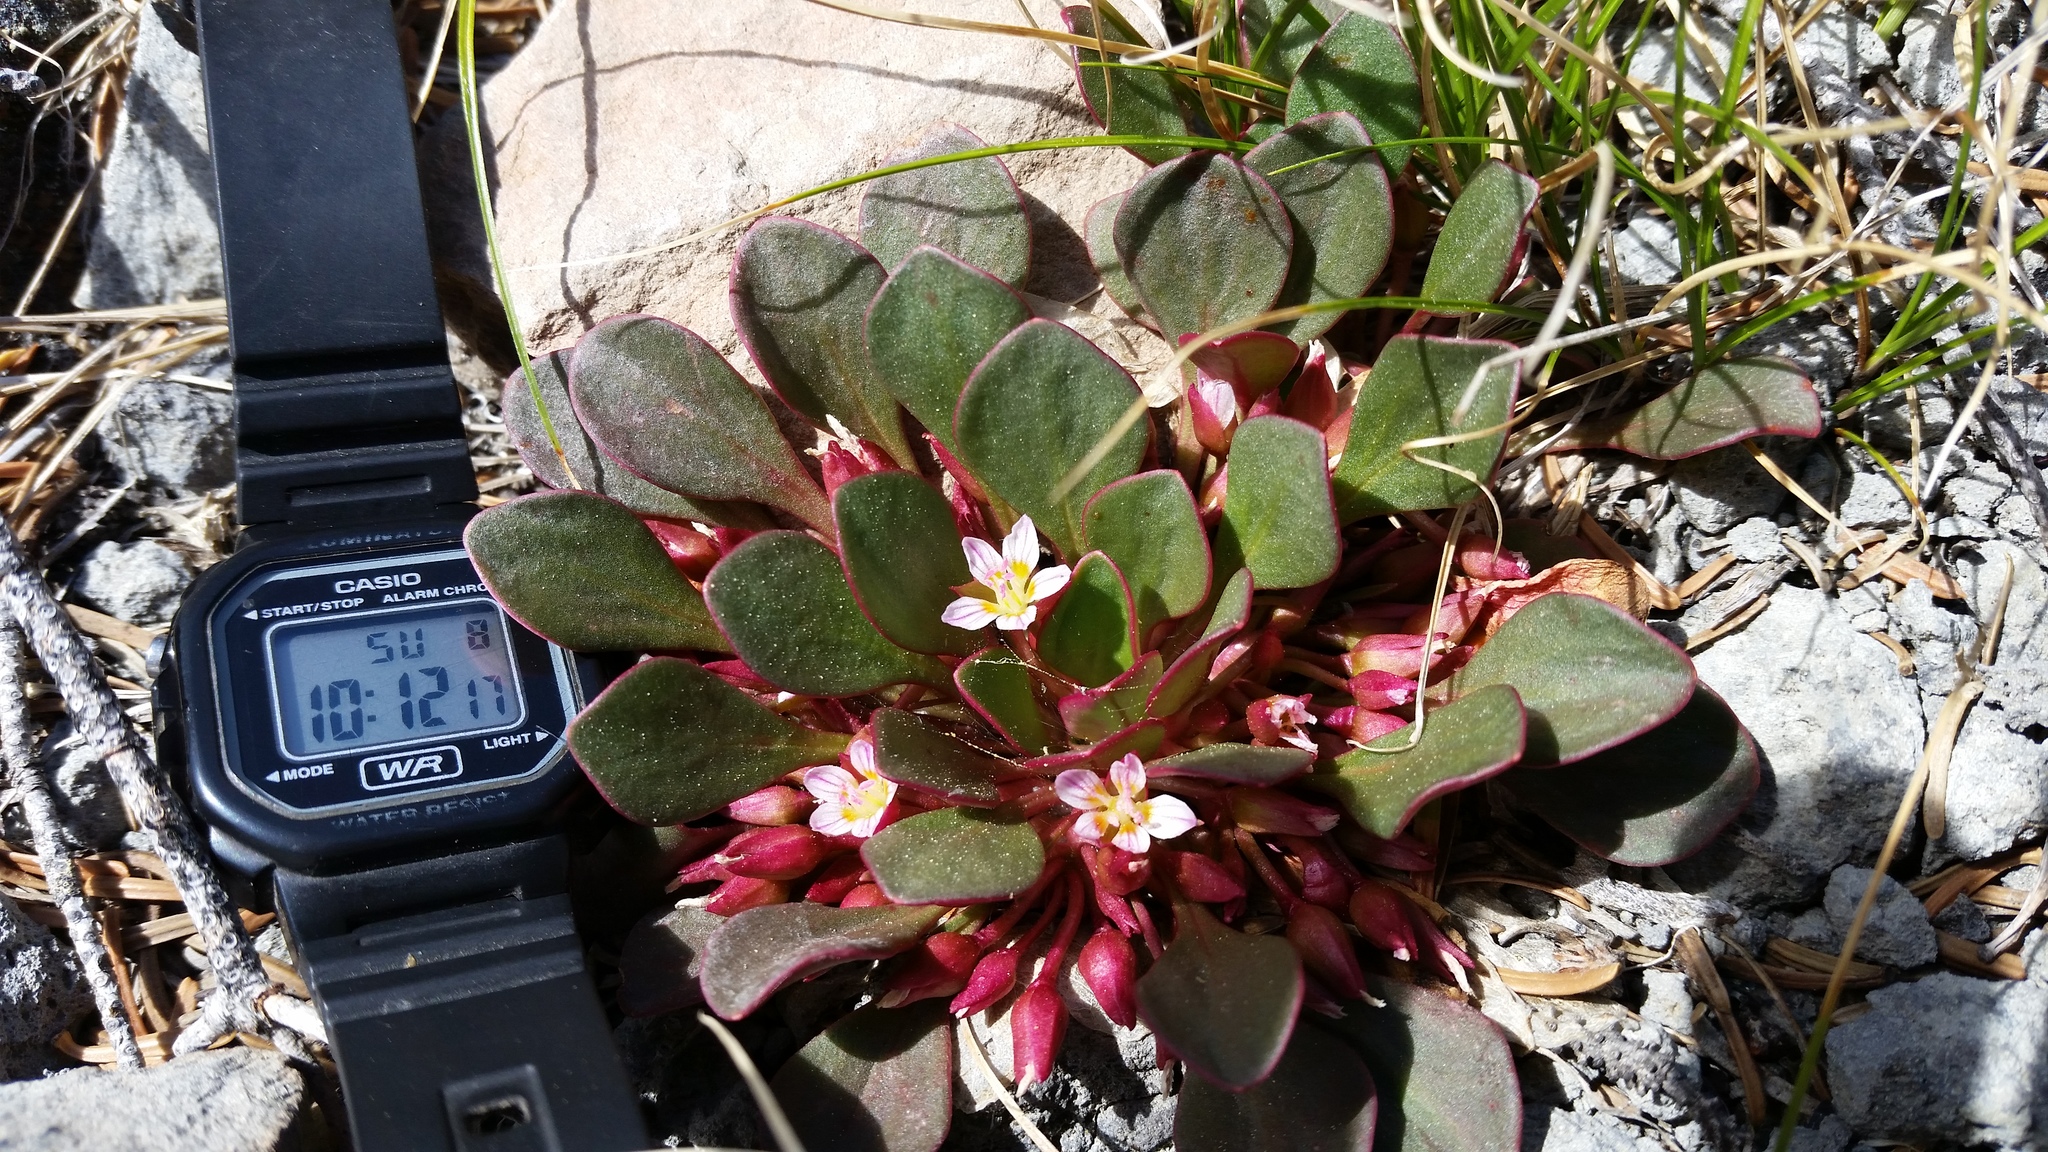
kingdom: Plantae
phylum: Tracheophyta
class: Magnoliopsida
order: Caryophyllales
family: Montiaceae
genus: Claytonia
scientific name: Claytonia megarhiza
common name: Alpine spring beauty
